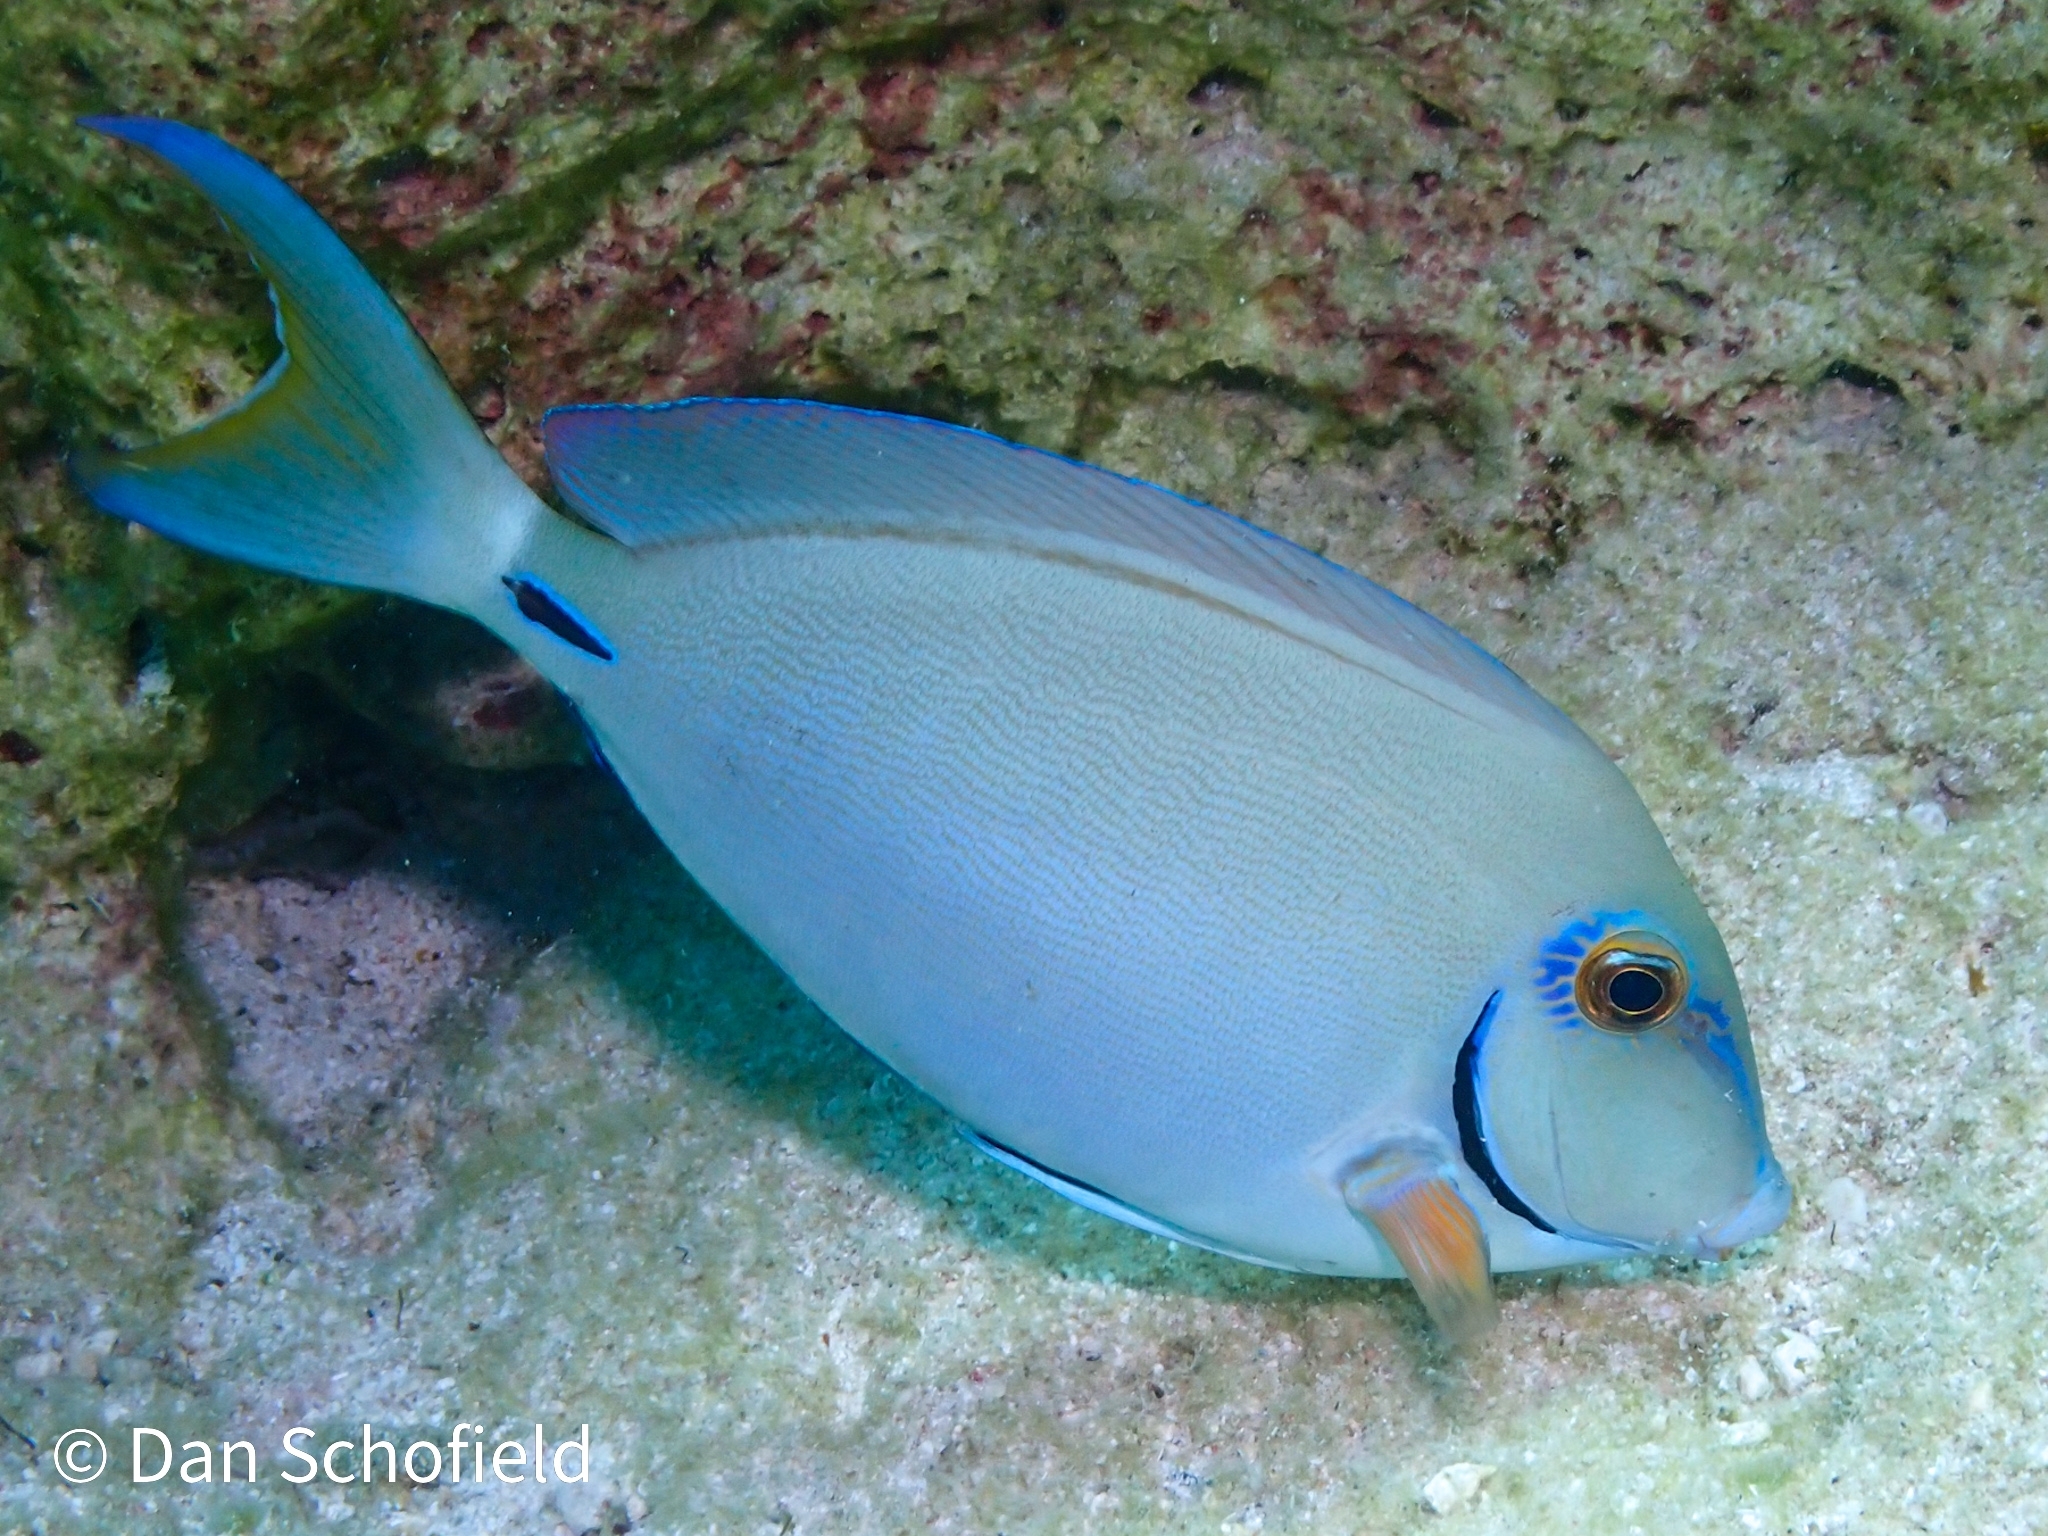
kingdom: Animalia
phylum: Chordata
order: Perciformes
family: Acanthuridae
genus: Acanthurus
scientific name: Acanthurus bahianus
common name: Ocean surgeon
